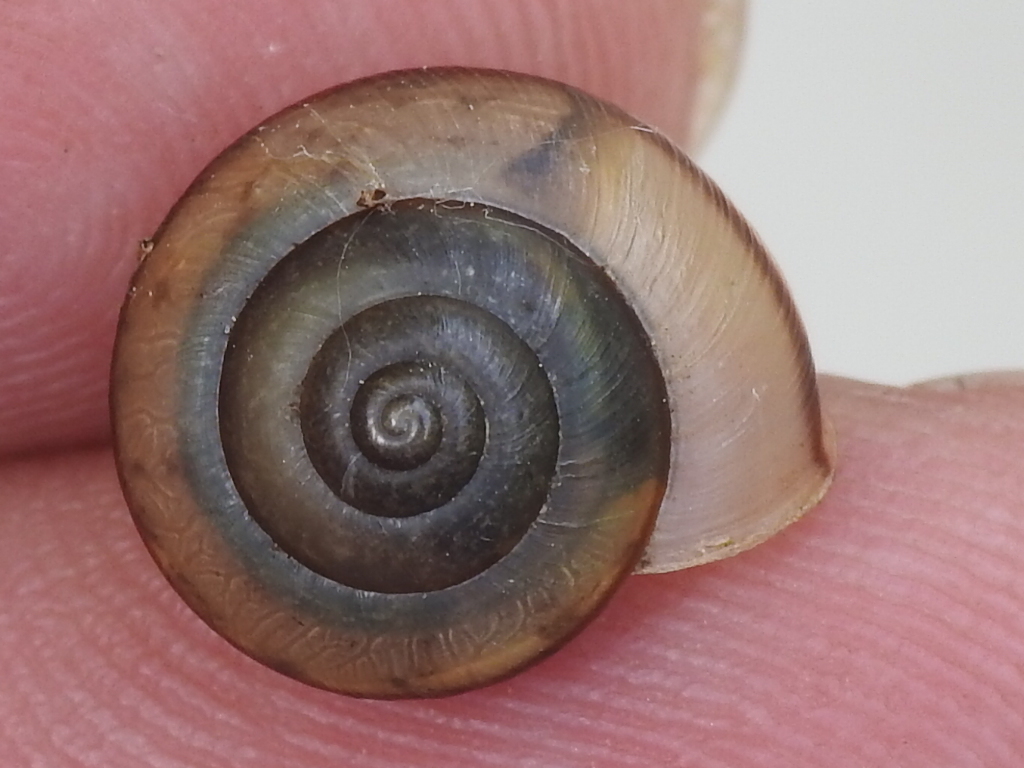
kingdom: Animalia
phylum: Mollusca
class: Gastropoda
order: Stylommatophora
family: Camaenidae
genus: Bradybaena
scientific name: Bradybaena similaris
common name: Asian trampsnail
